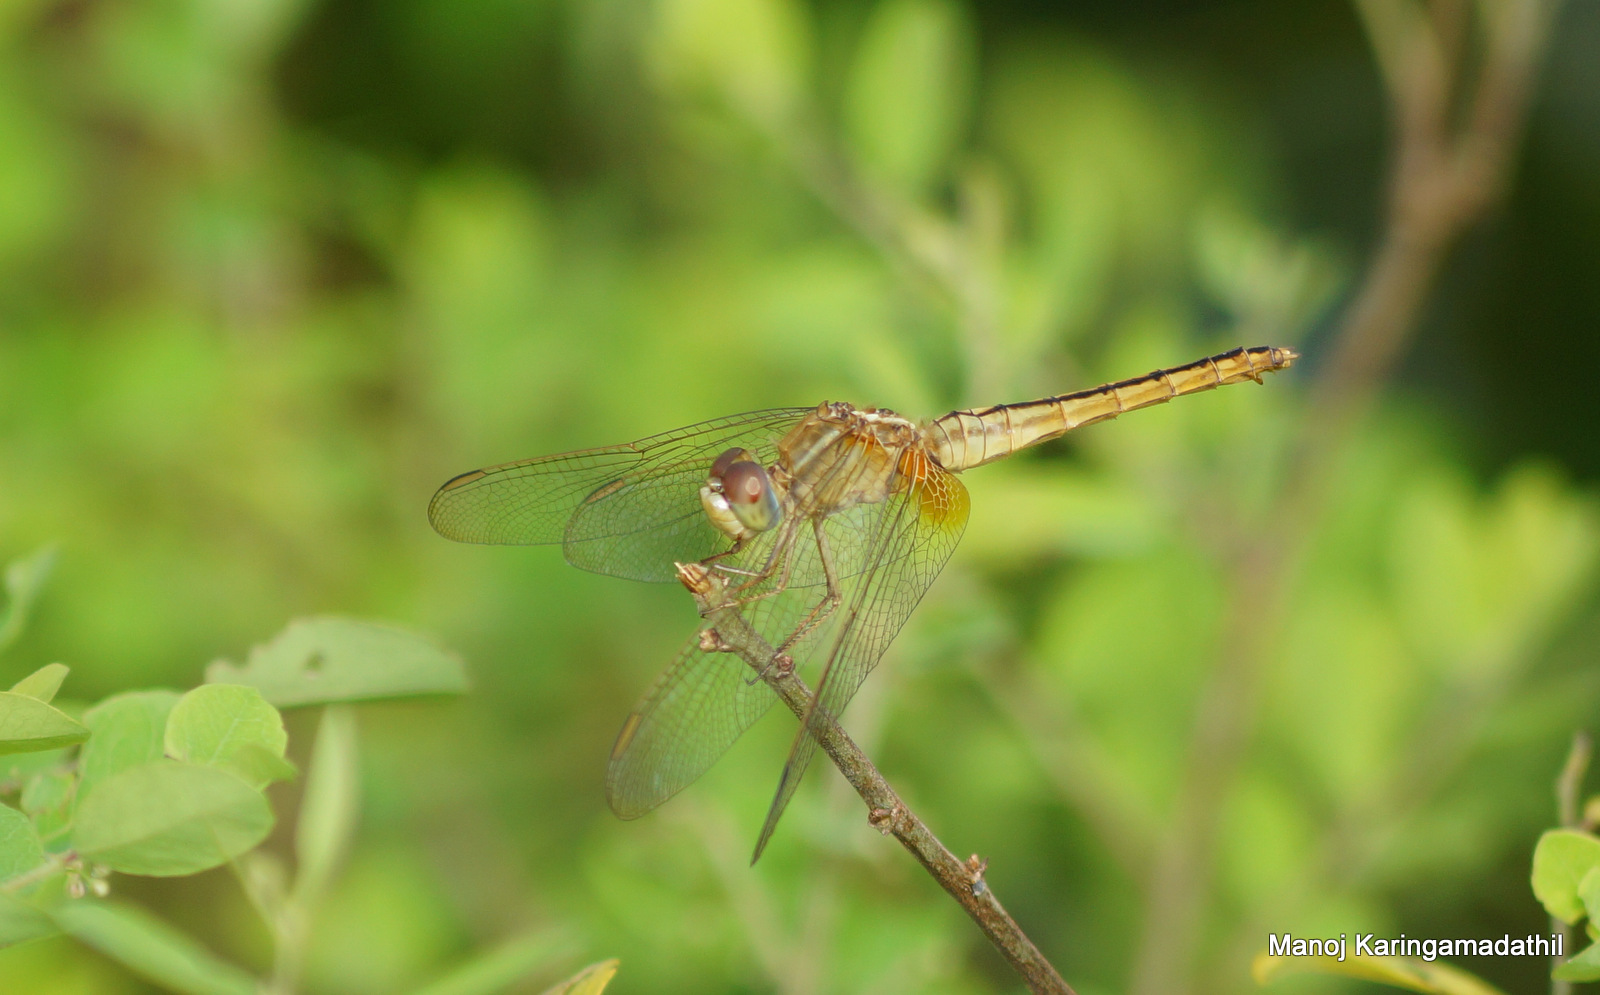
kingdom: Animalia
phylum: Arthropoda
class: Insecta
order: Odonata
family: Libellulidae
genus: Crocothemis
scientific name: Crocothemis servilia
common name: Scarlet skimmer
